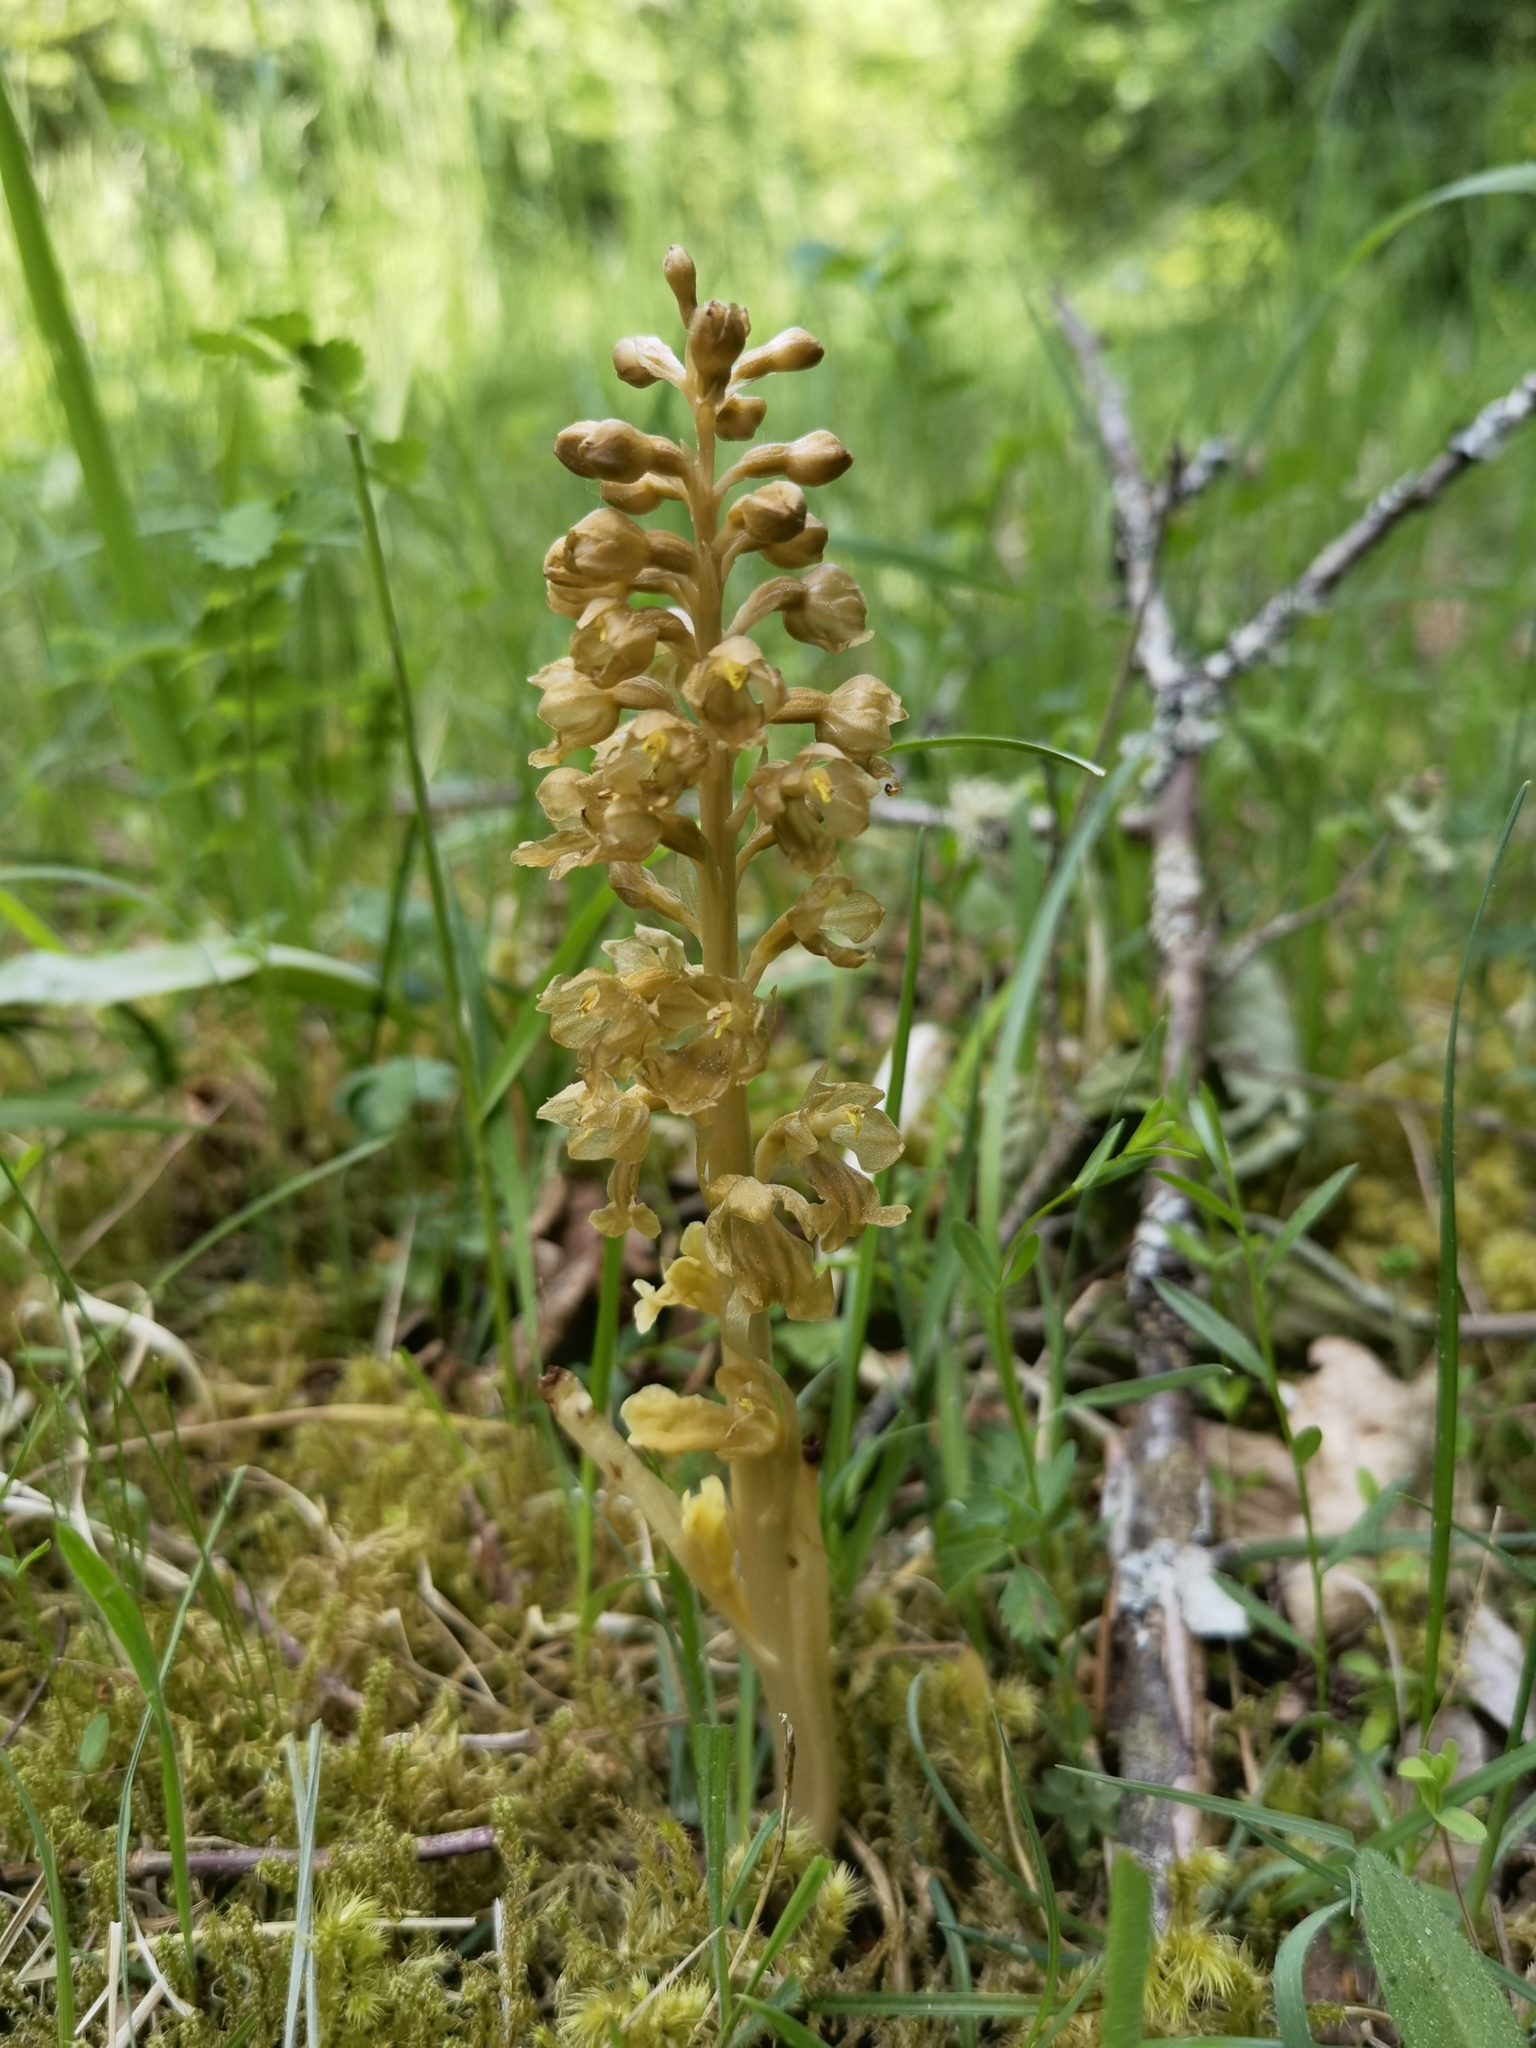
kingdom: Plantae
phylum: Tracheophyta
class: Liliopsida
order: Asparagales
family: Orchidaceae
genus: Neottia
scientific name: Neottia nidus-avis
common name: Bird's-nest orchid
